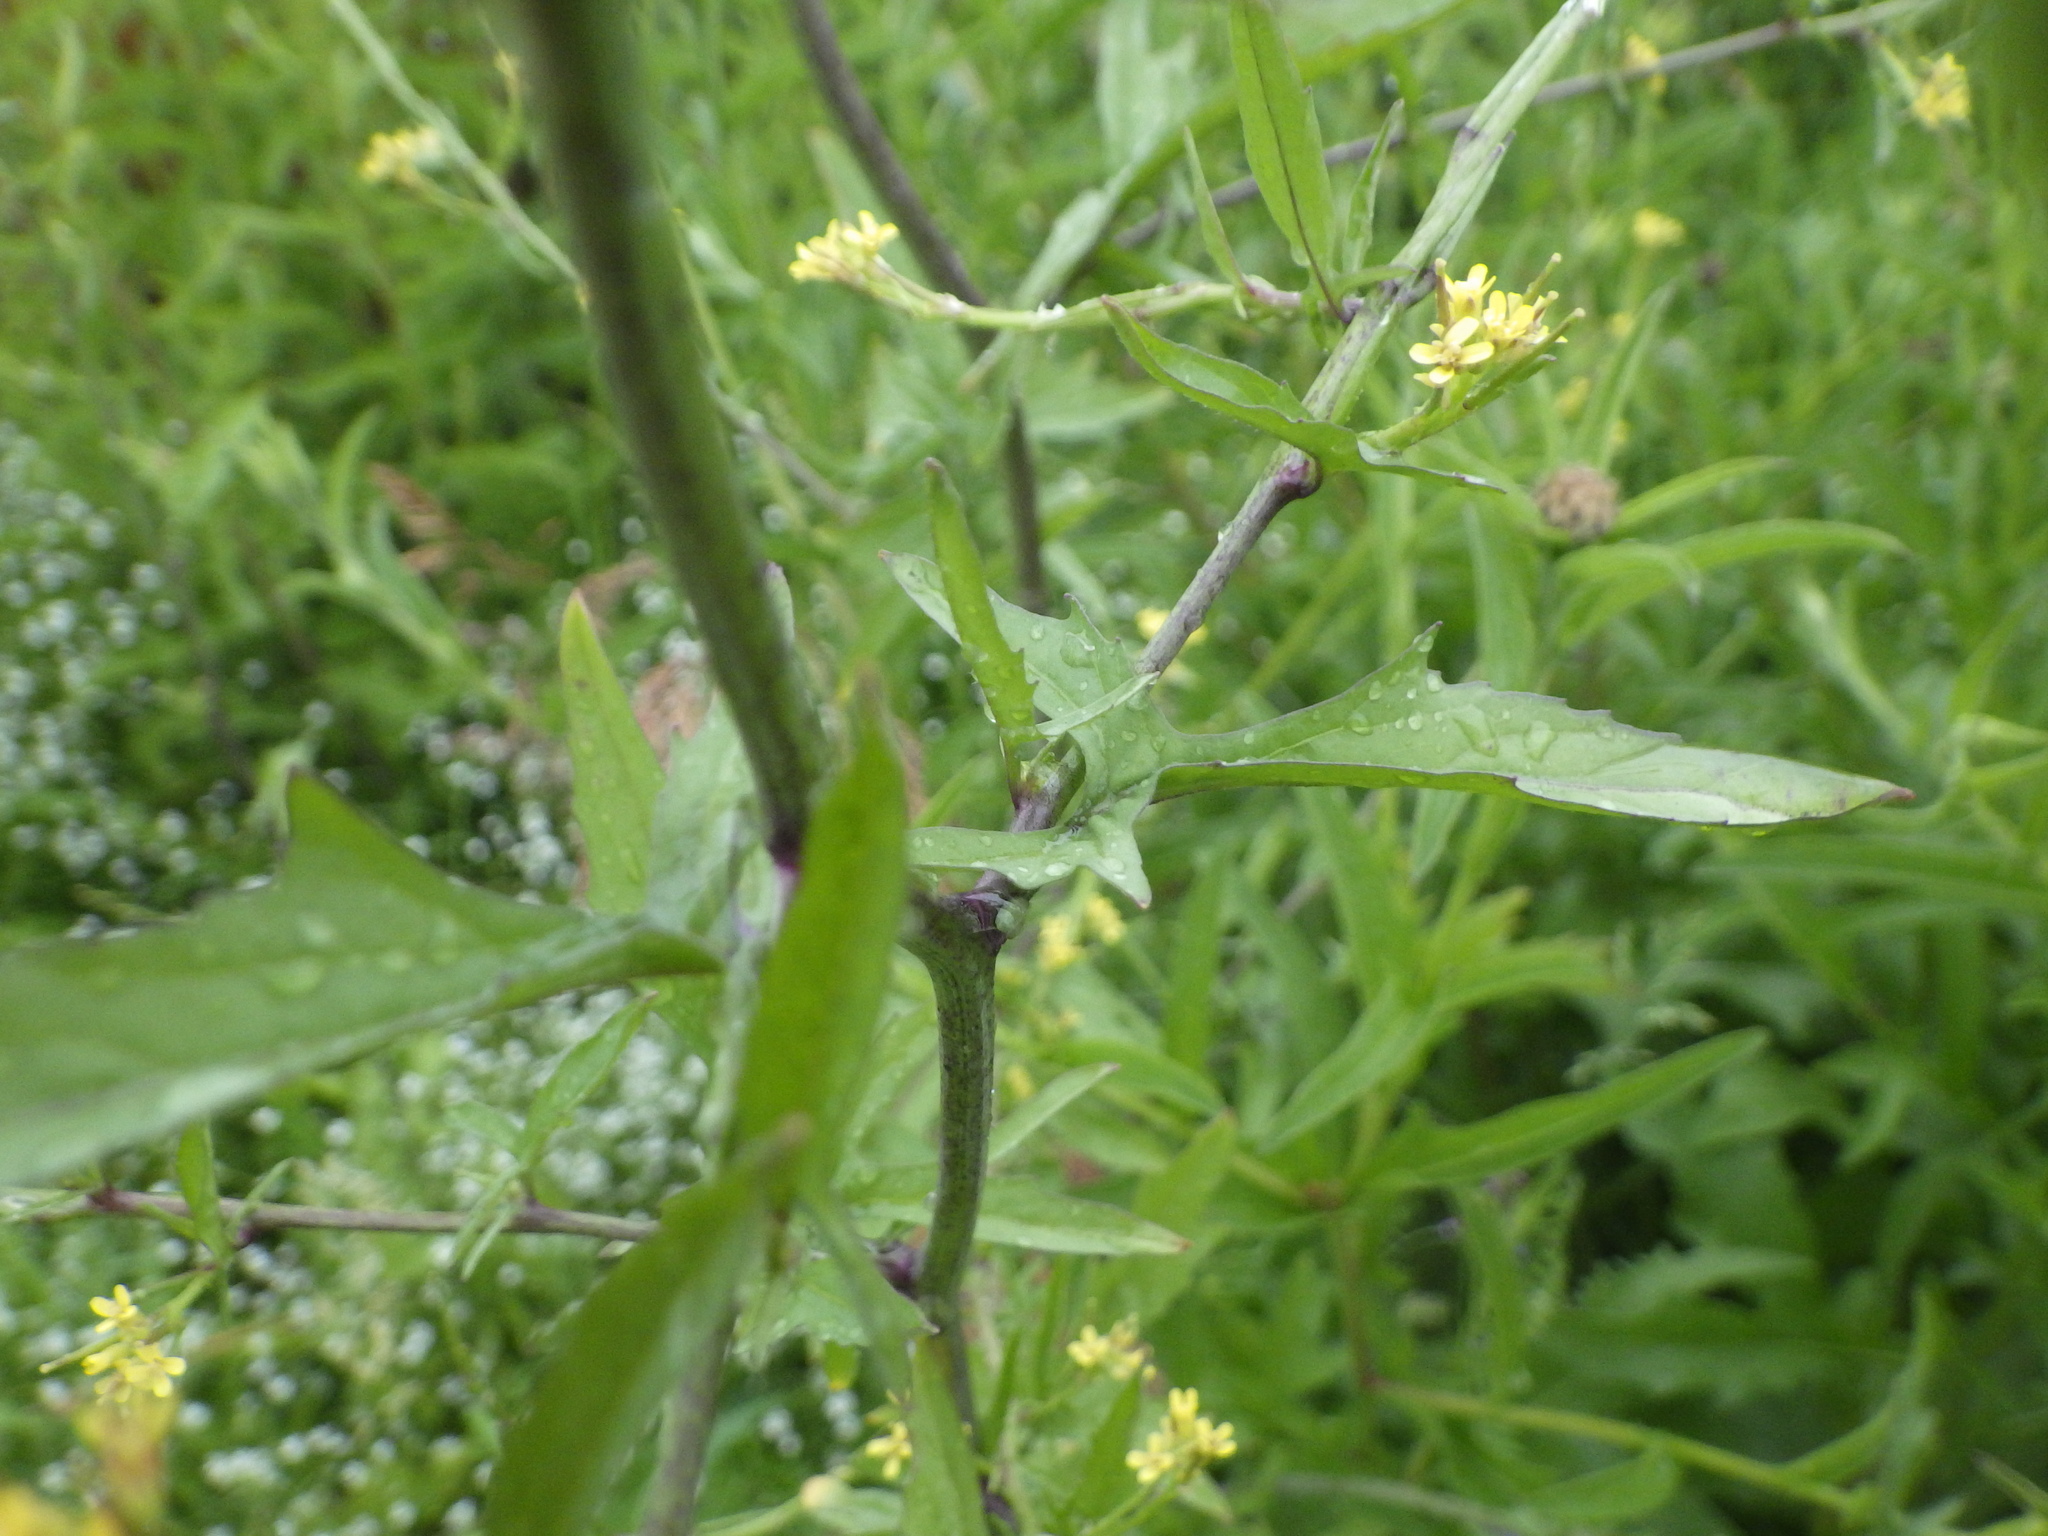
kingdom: Plantae
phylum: Tracheophyta
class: Magnoliopsida
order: Brassicales
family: Brassicaceae
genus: Sisymbrium
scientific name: Sisymbrium officinale
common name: Hedge mustard
